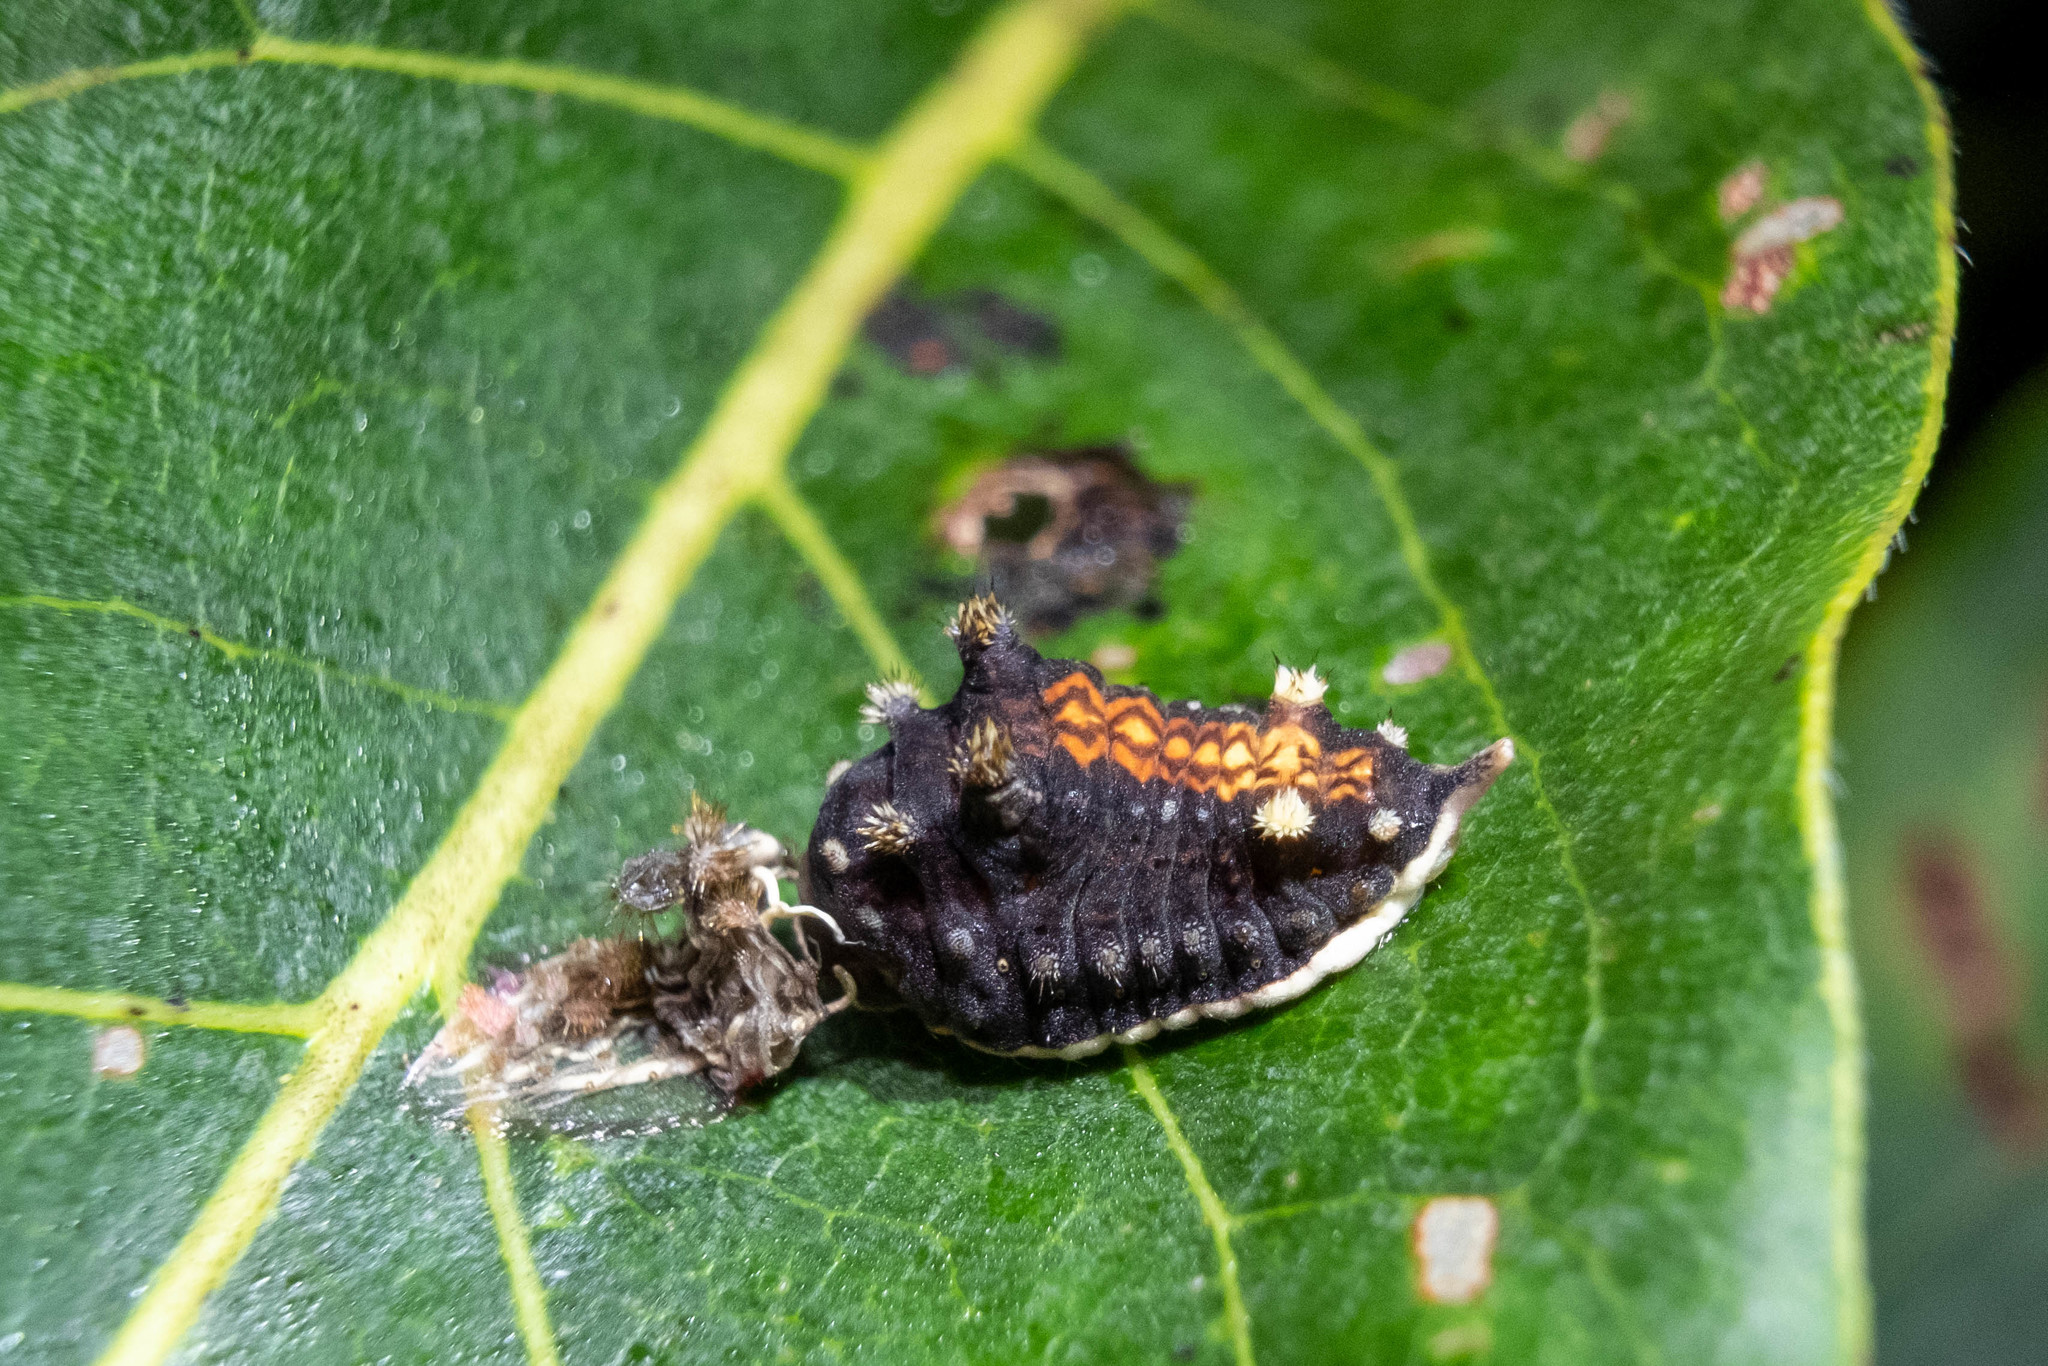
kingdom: Animalia
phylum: Arthropoda
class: Insecta
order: Lepidoptera
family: Limacodidae
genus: Parasa
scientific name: Parasa chloris
